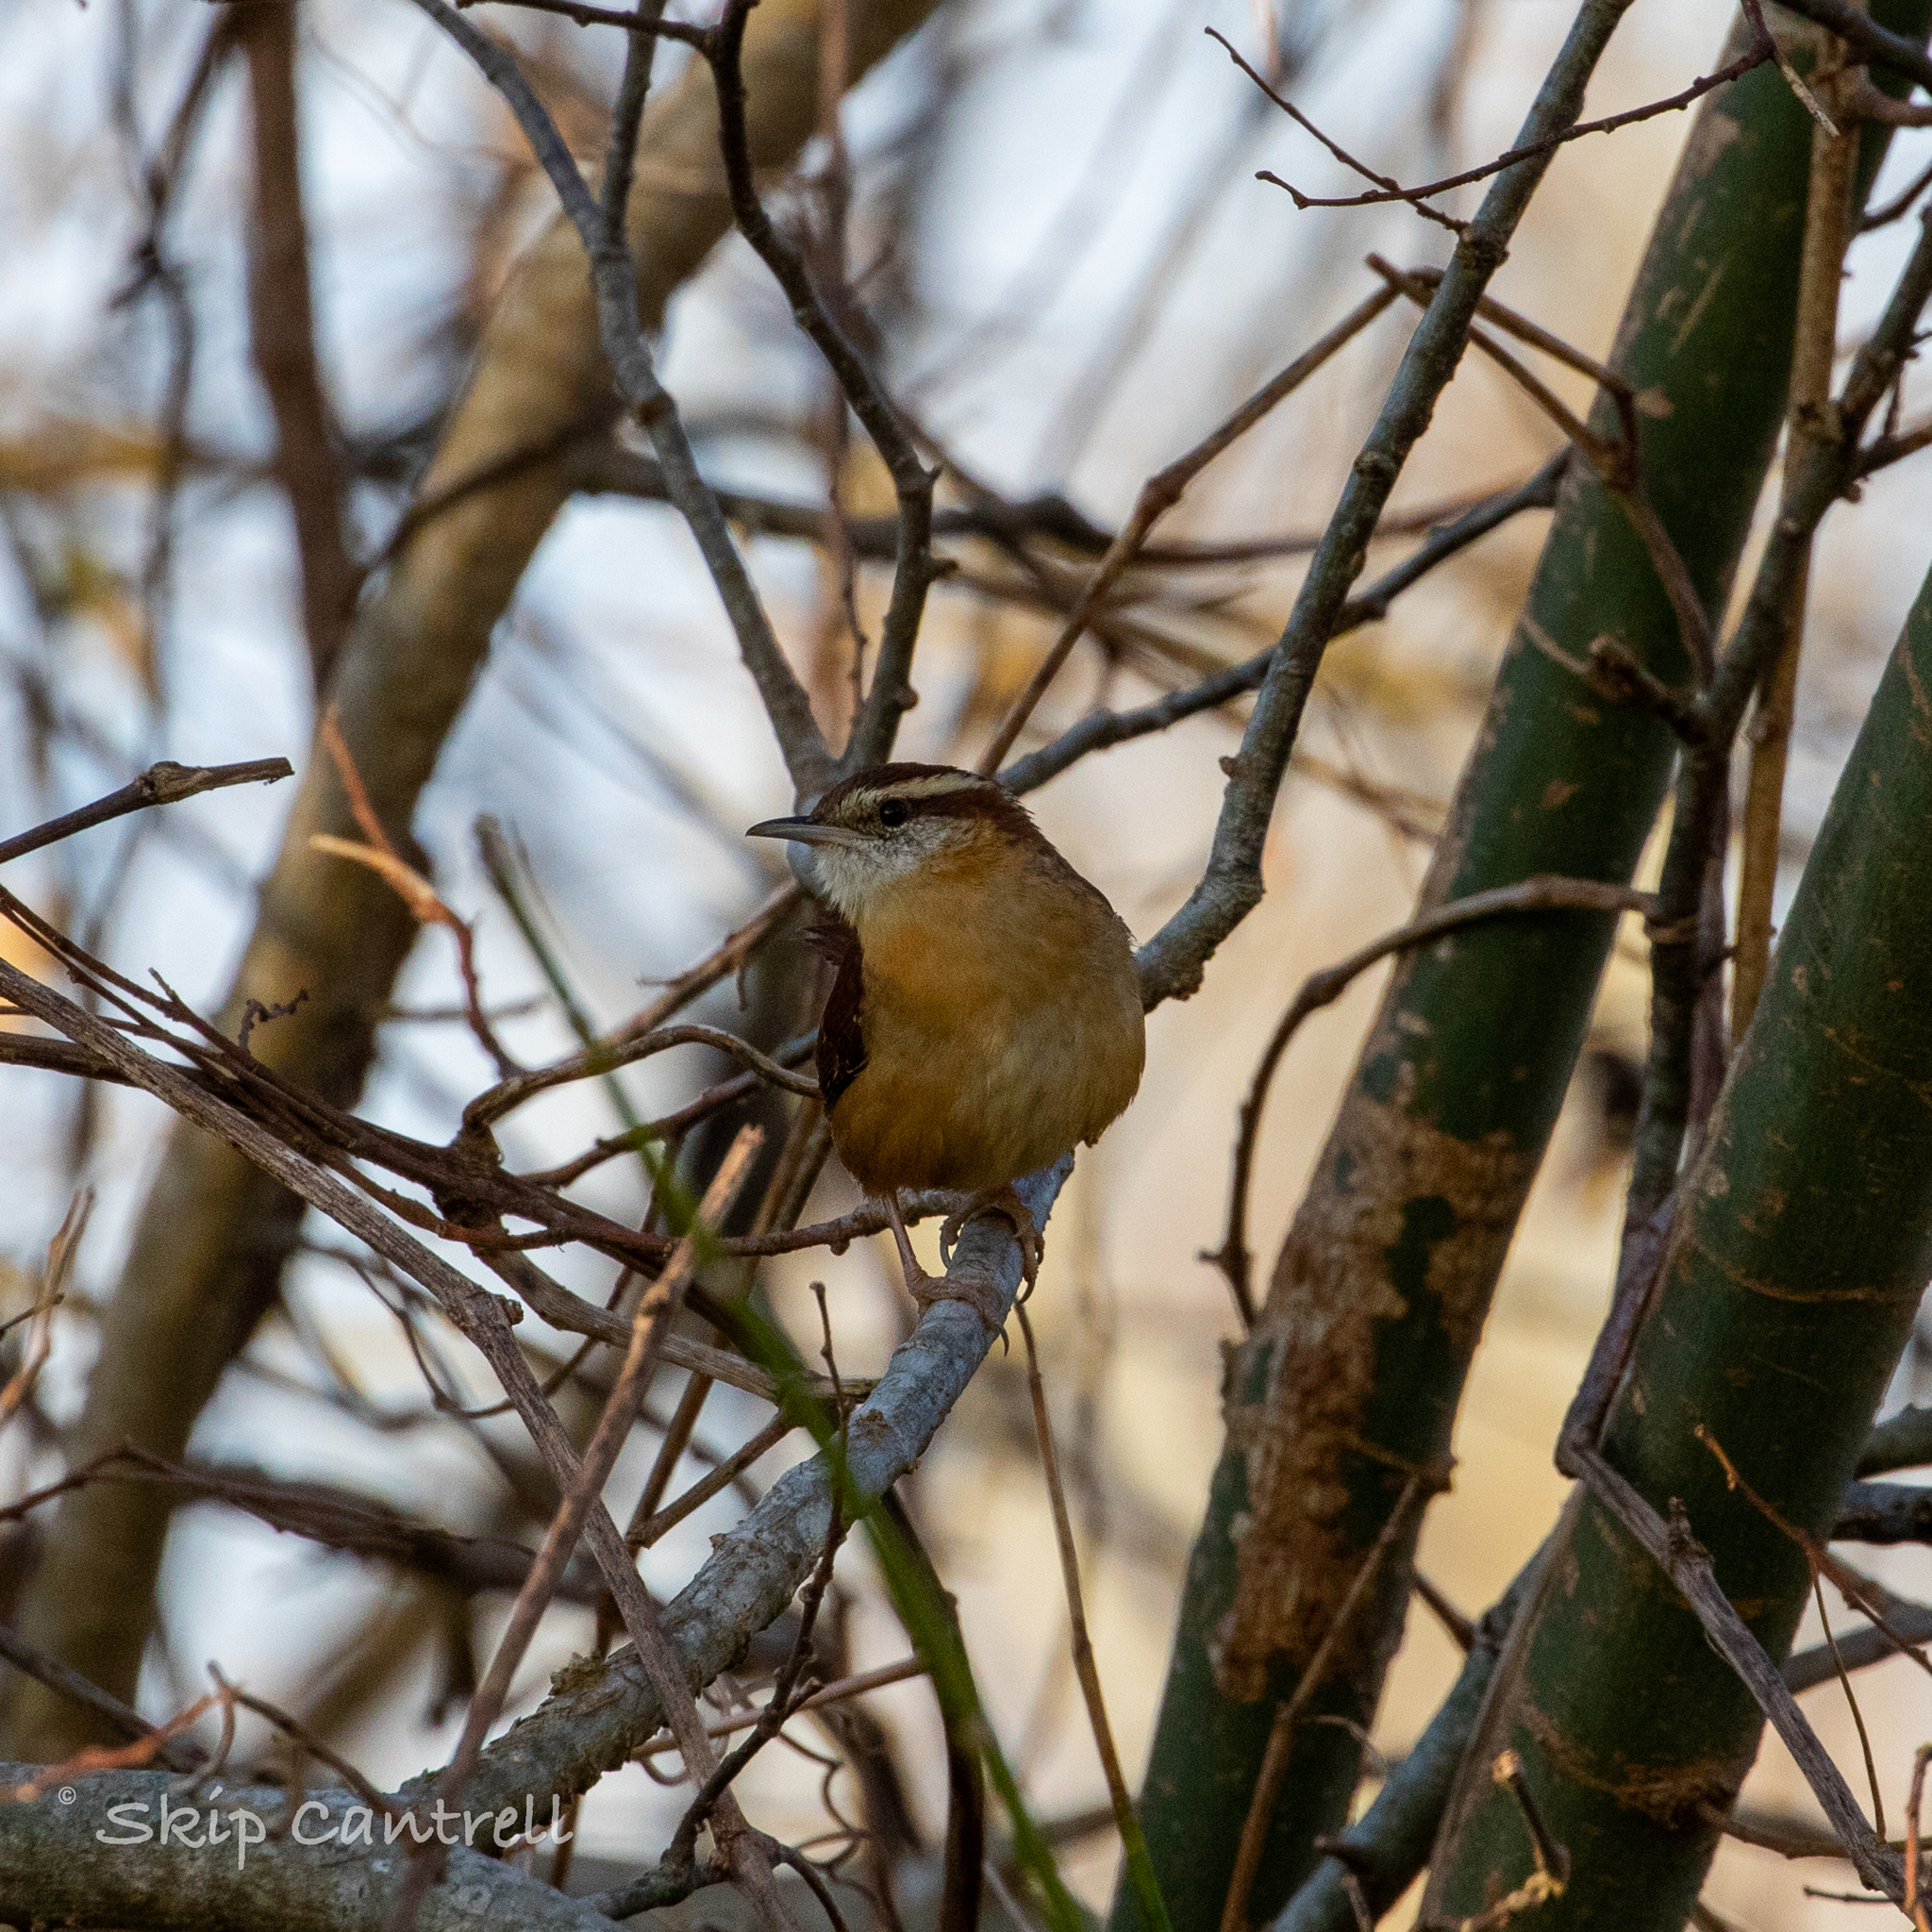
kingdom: Animalia
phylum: Chordata
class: Aves
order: Passeriformes
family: Troglodytidae
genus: Thryothorus
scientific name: Thryothorus ludovicianus
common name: Carolina wren
